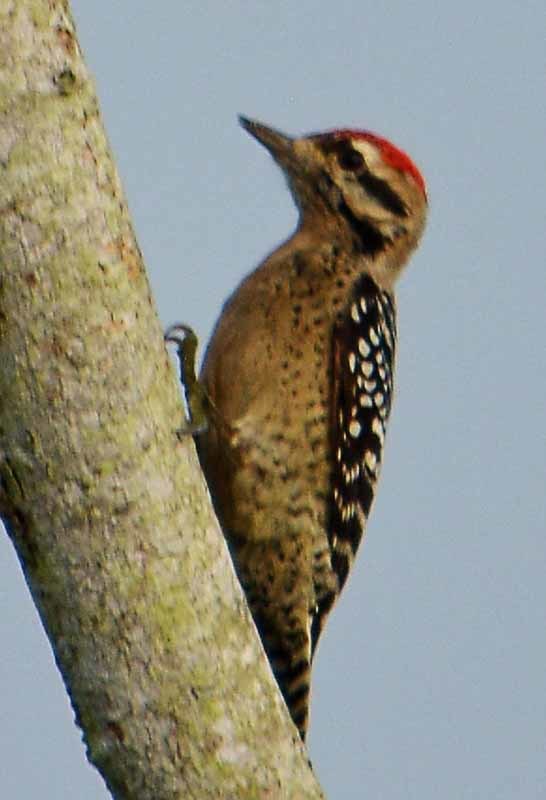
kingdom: Animalia
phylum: Chordata
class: Aves
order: Piciformes
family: Picidae
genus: Dryobates
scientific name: Dryobates scalaris
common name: Ladder-backed woodpecker
